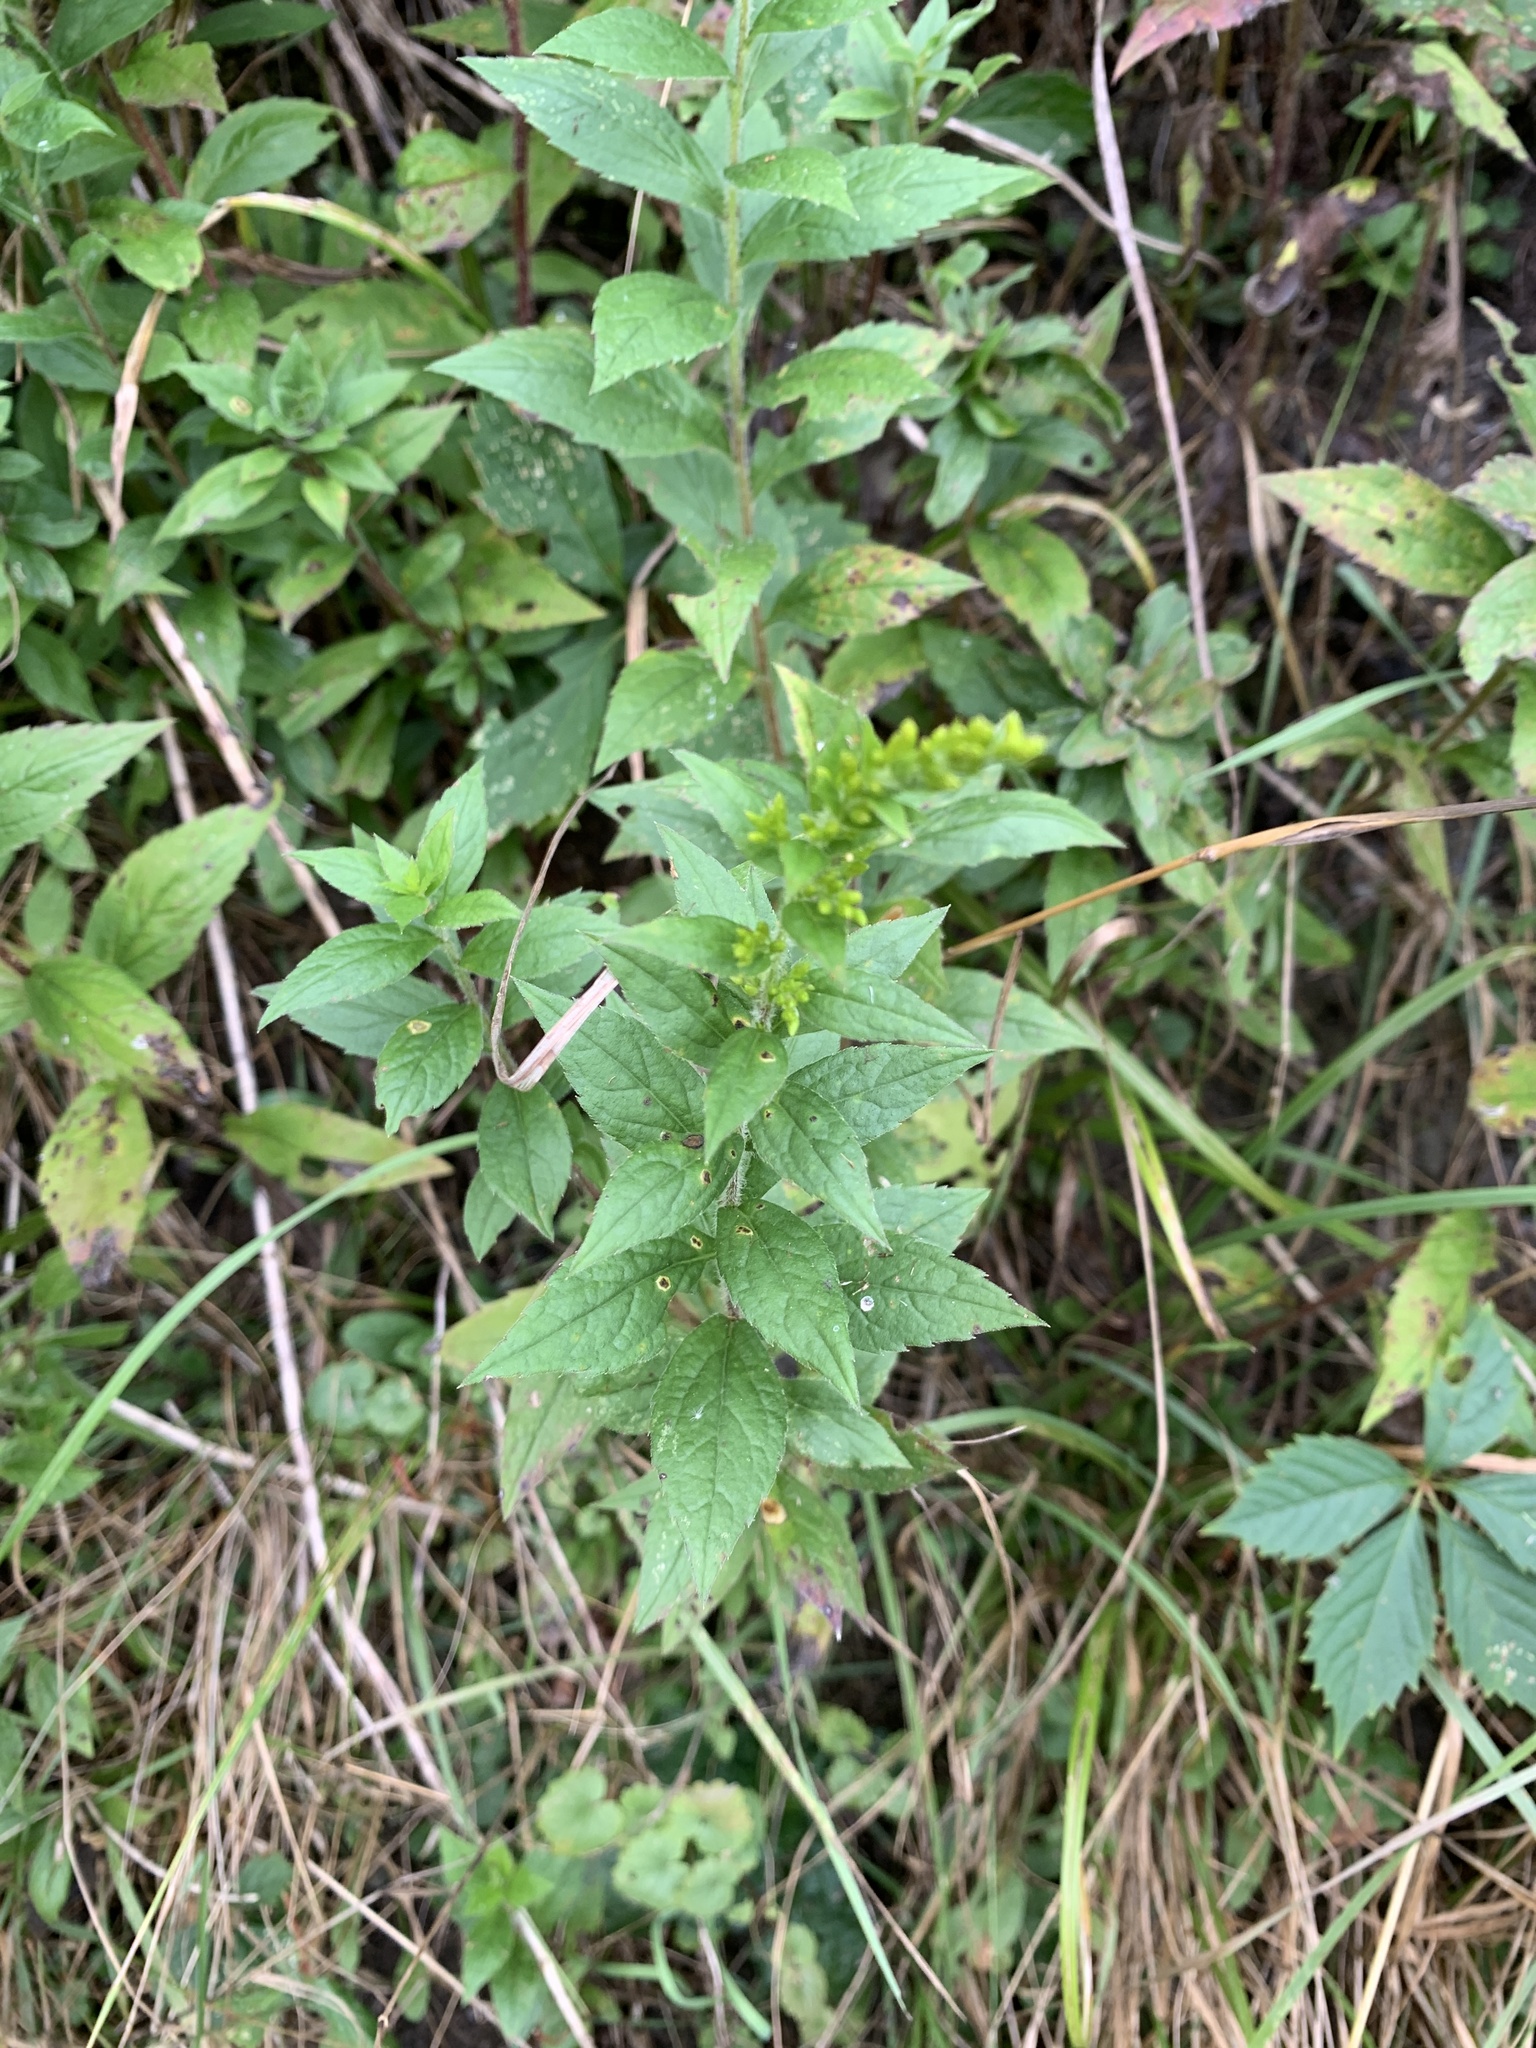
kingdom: Plantae
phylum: Tracheophyta
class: Magnoliopsida
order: Asterales
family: Asteraceae
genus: Solidago
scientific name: Solidago rugosa
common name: Rough-stemmed goldenrod
